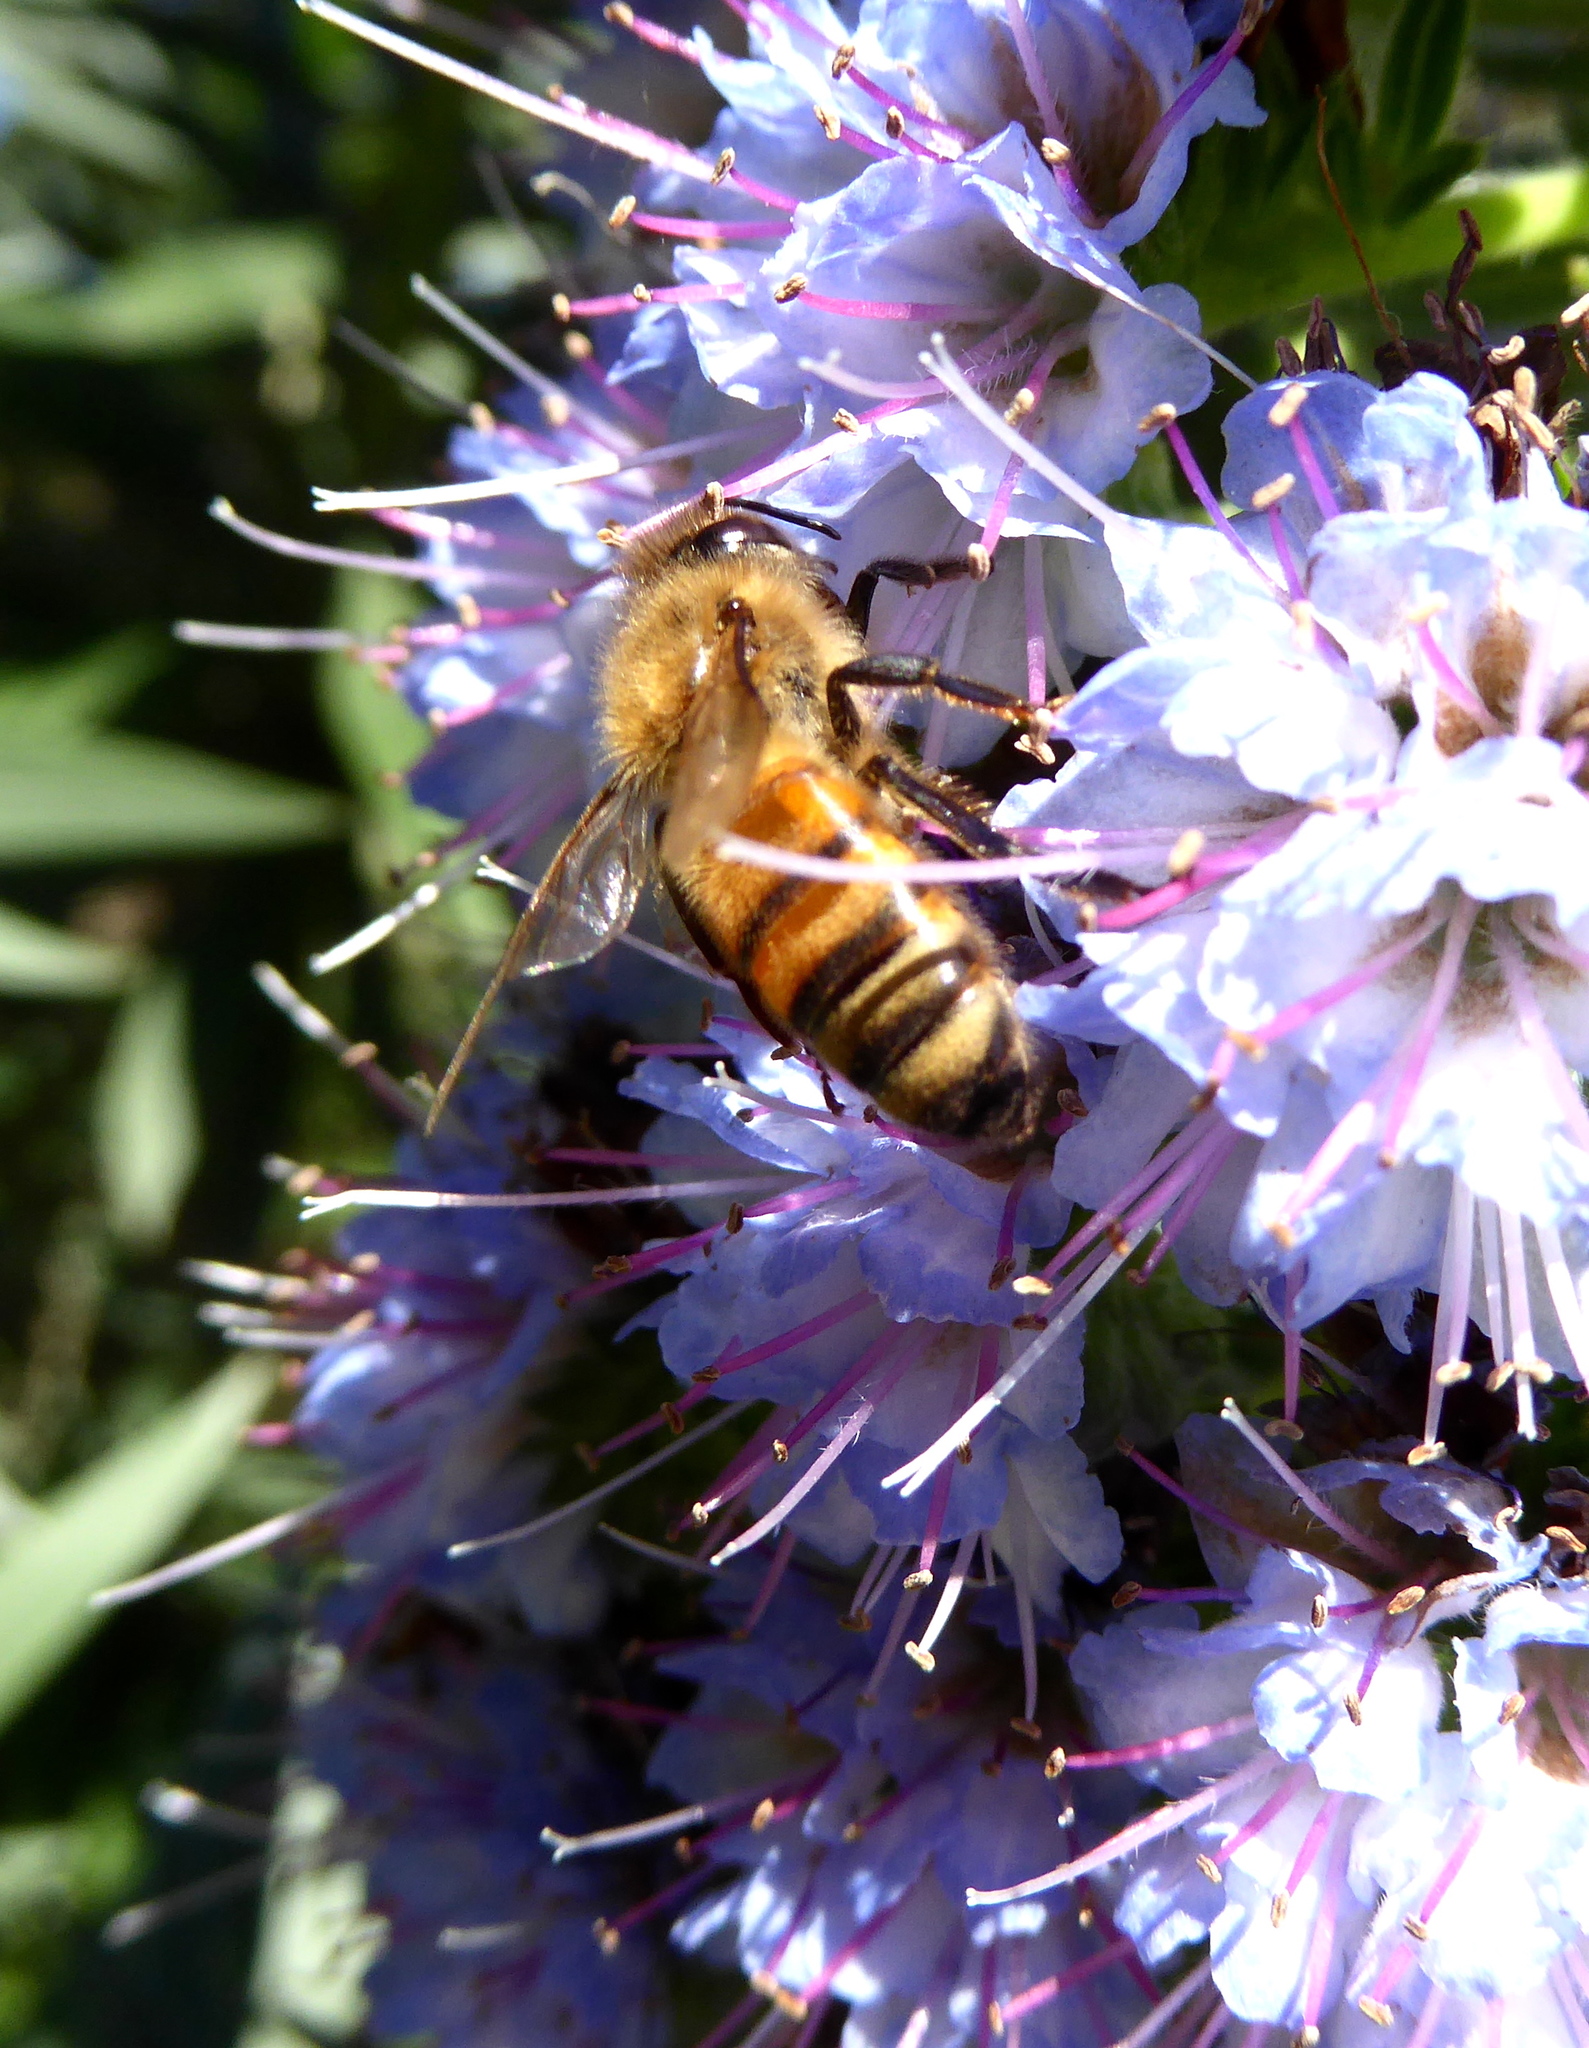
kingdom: Animalia
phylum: Arthropoda
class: Insecta
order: Hymenoptera
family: Apidae
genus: Apis
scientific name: Apis mellifera
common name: Honey bee
